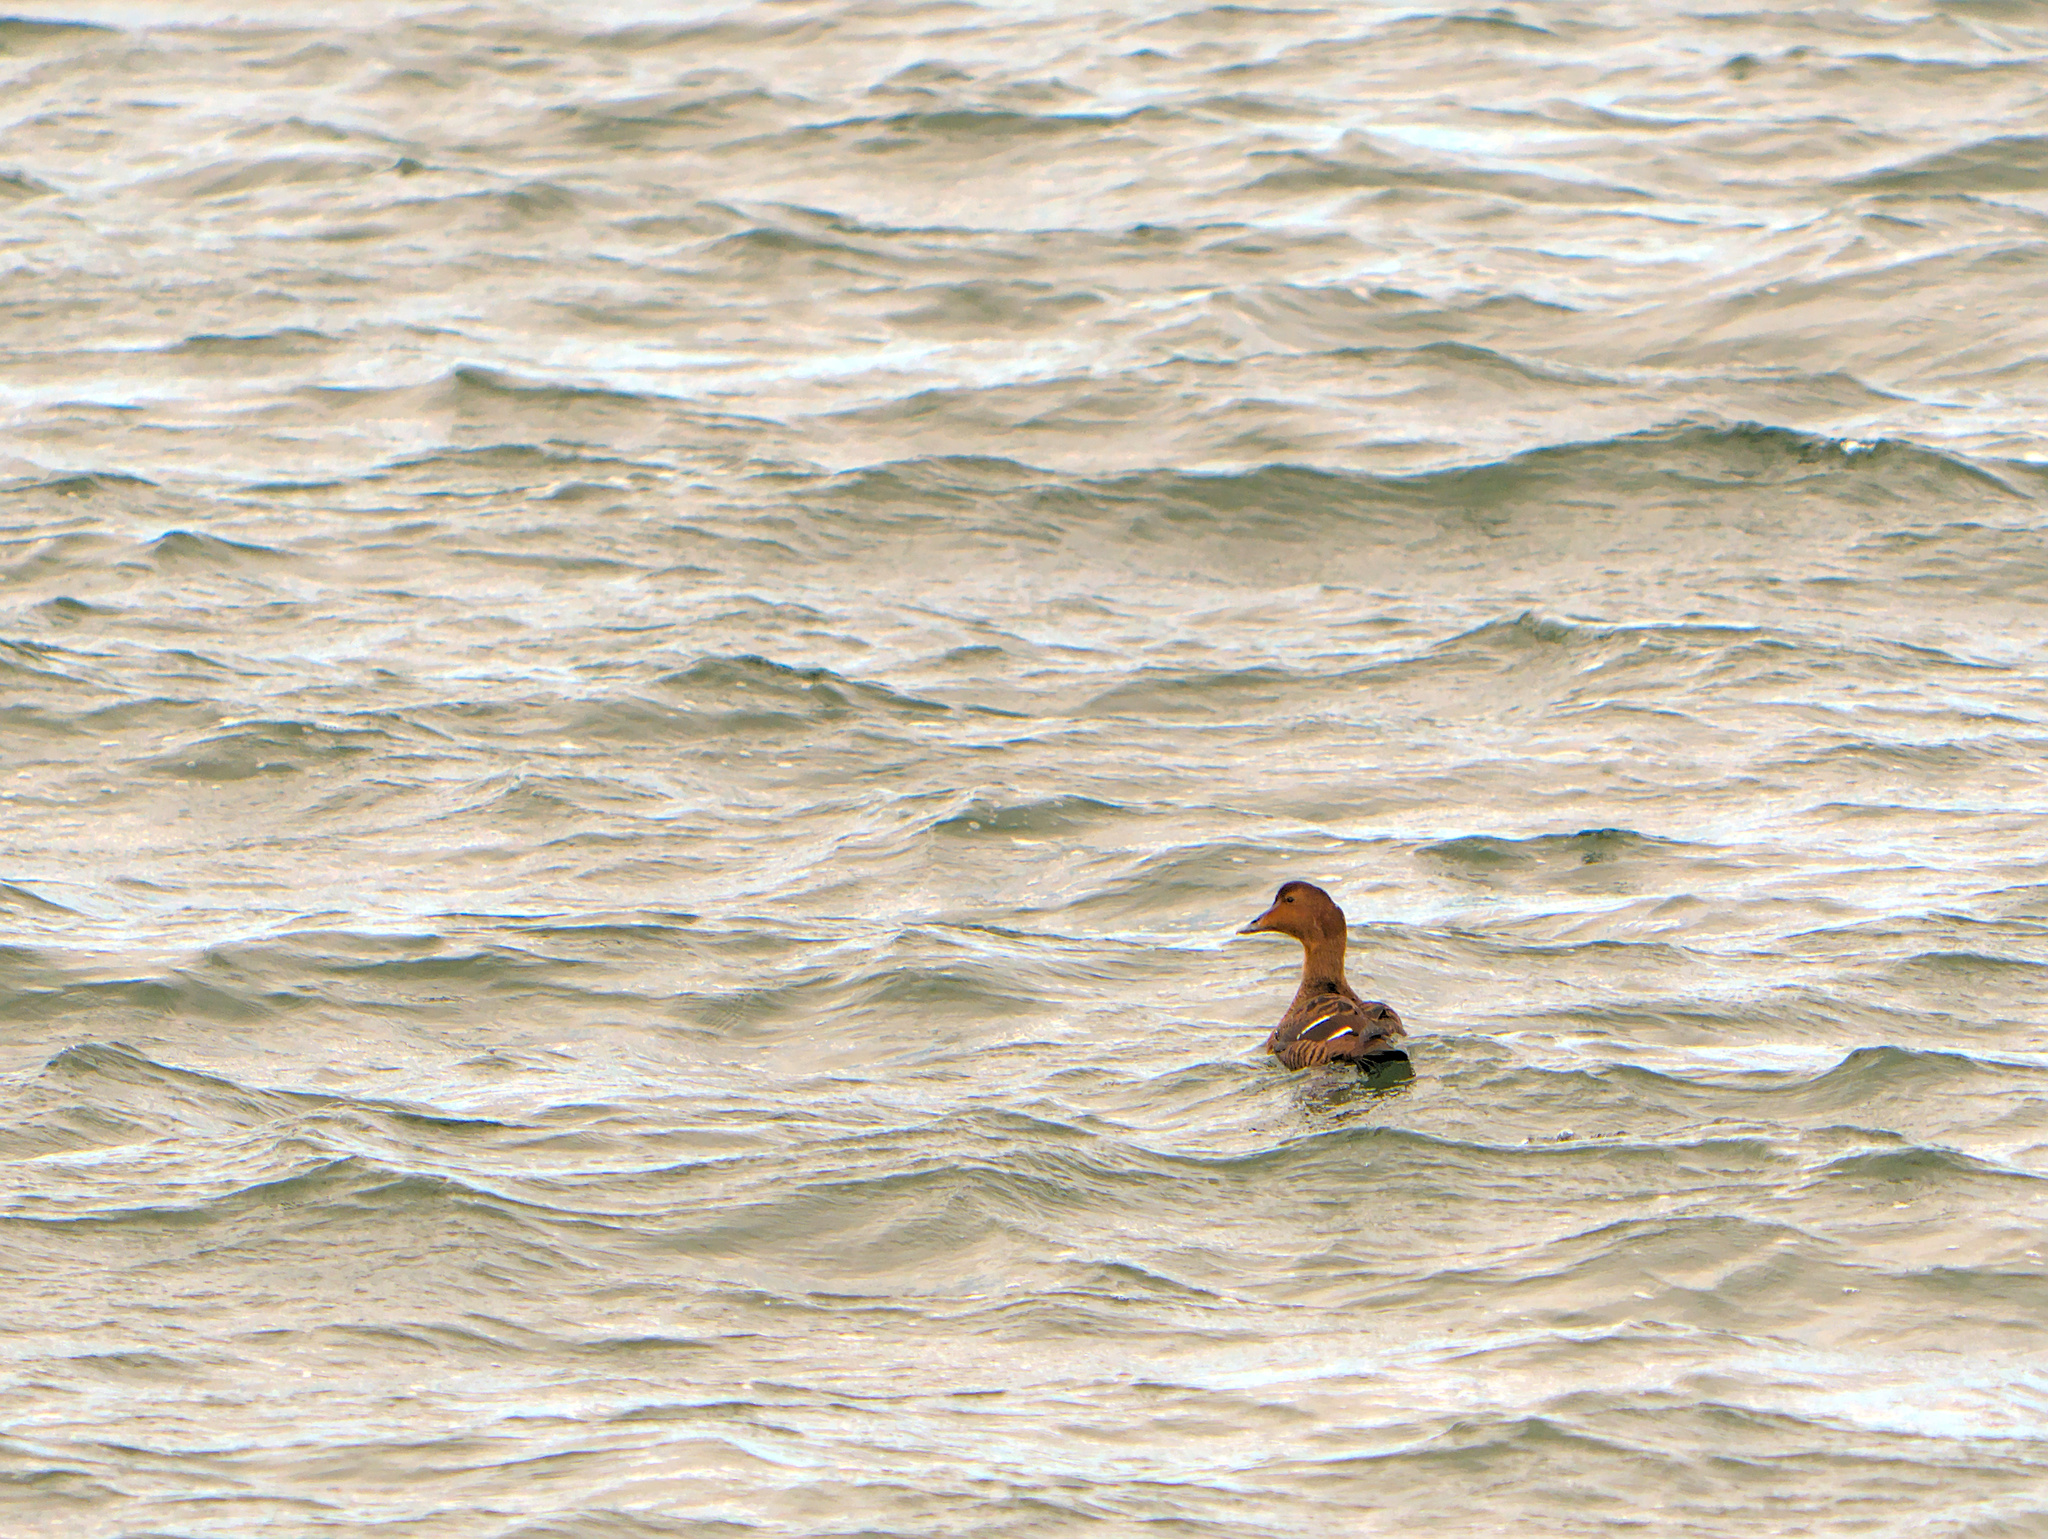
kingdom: Animalia
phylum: Chordata
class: Aves
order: Anseriformes
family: Anatidae
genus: Somateria
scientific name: Somateria mollissima
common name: Common eider
